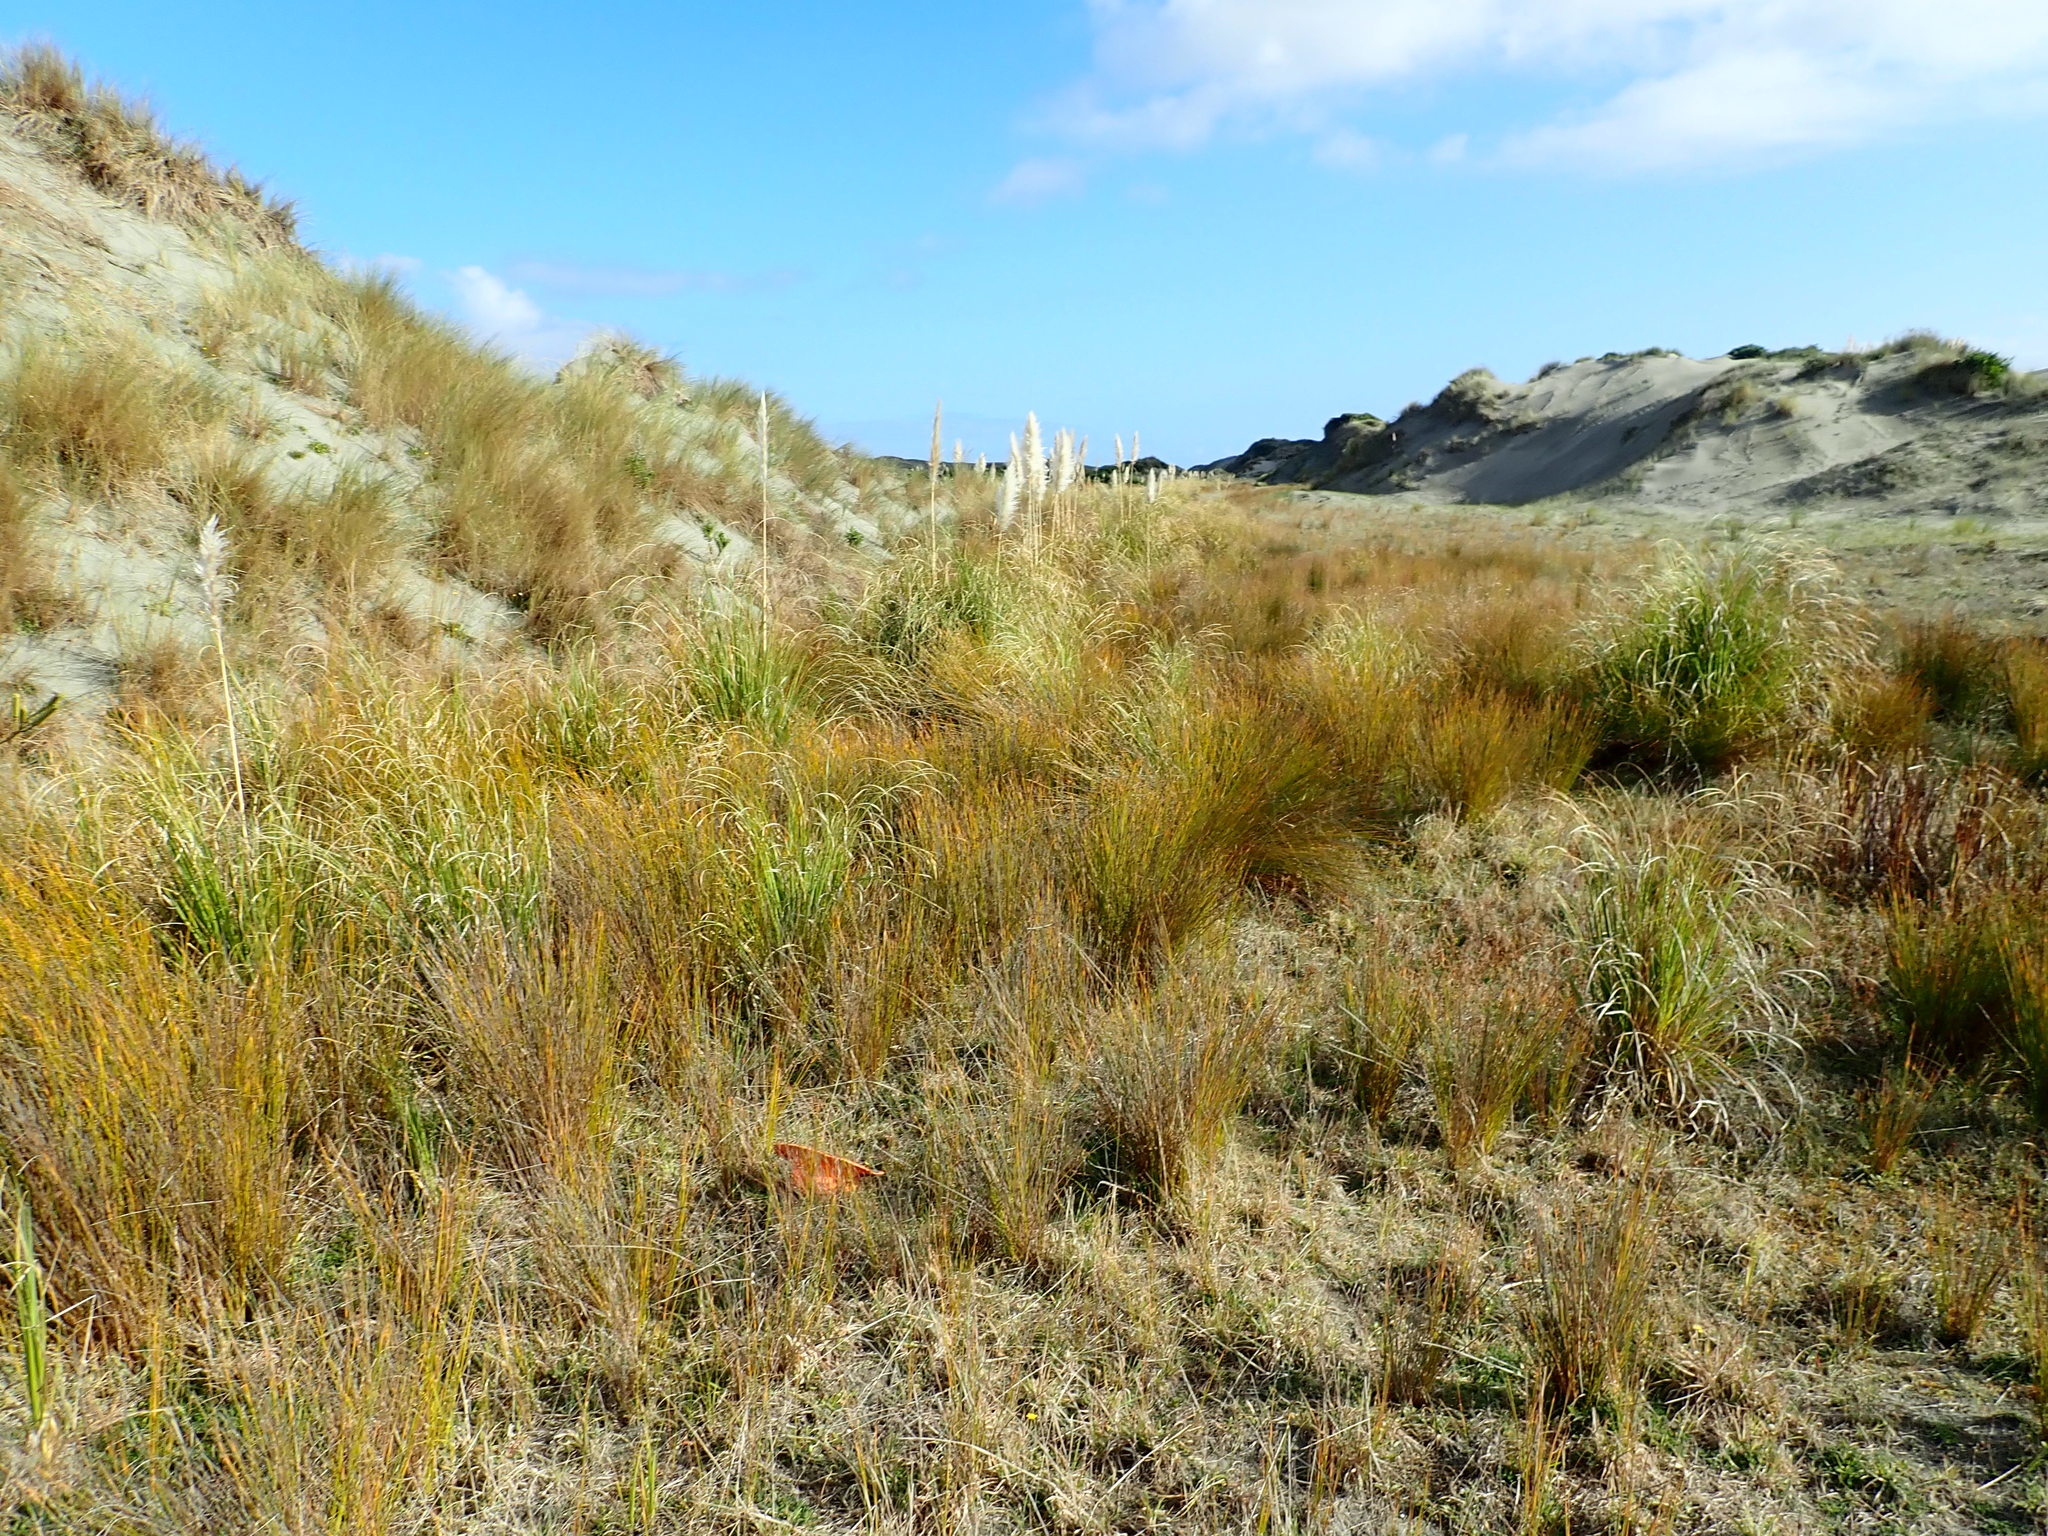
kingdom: Plantae
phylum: Tracheophyta
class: Liliopsida
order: Poales
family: Juncaceae
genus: Juncus
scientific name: Juncus caespiticius
